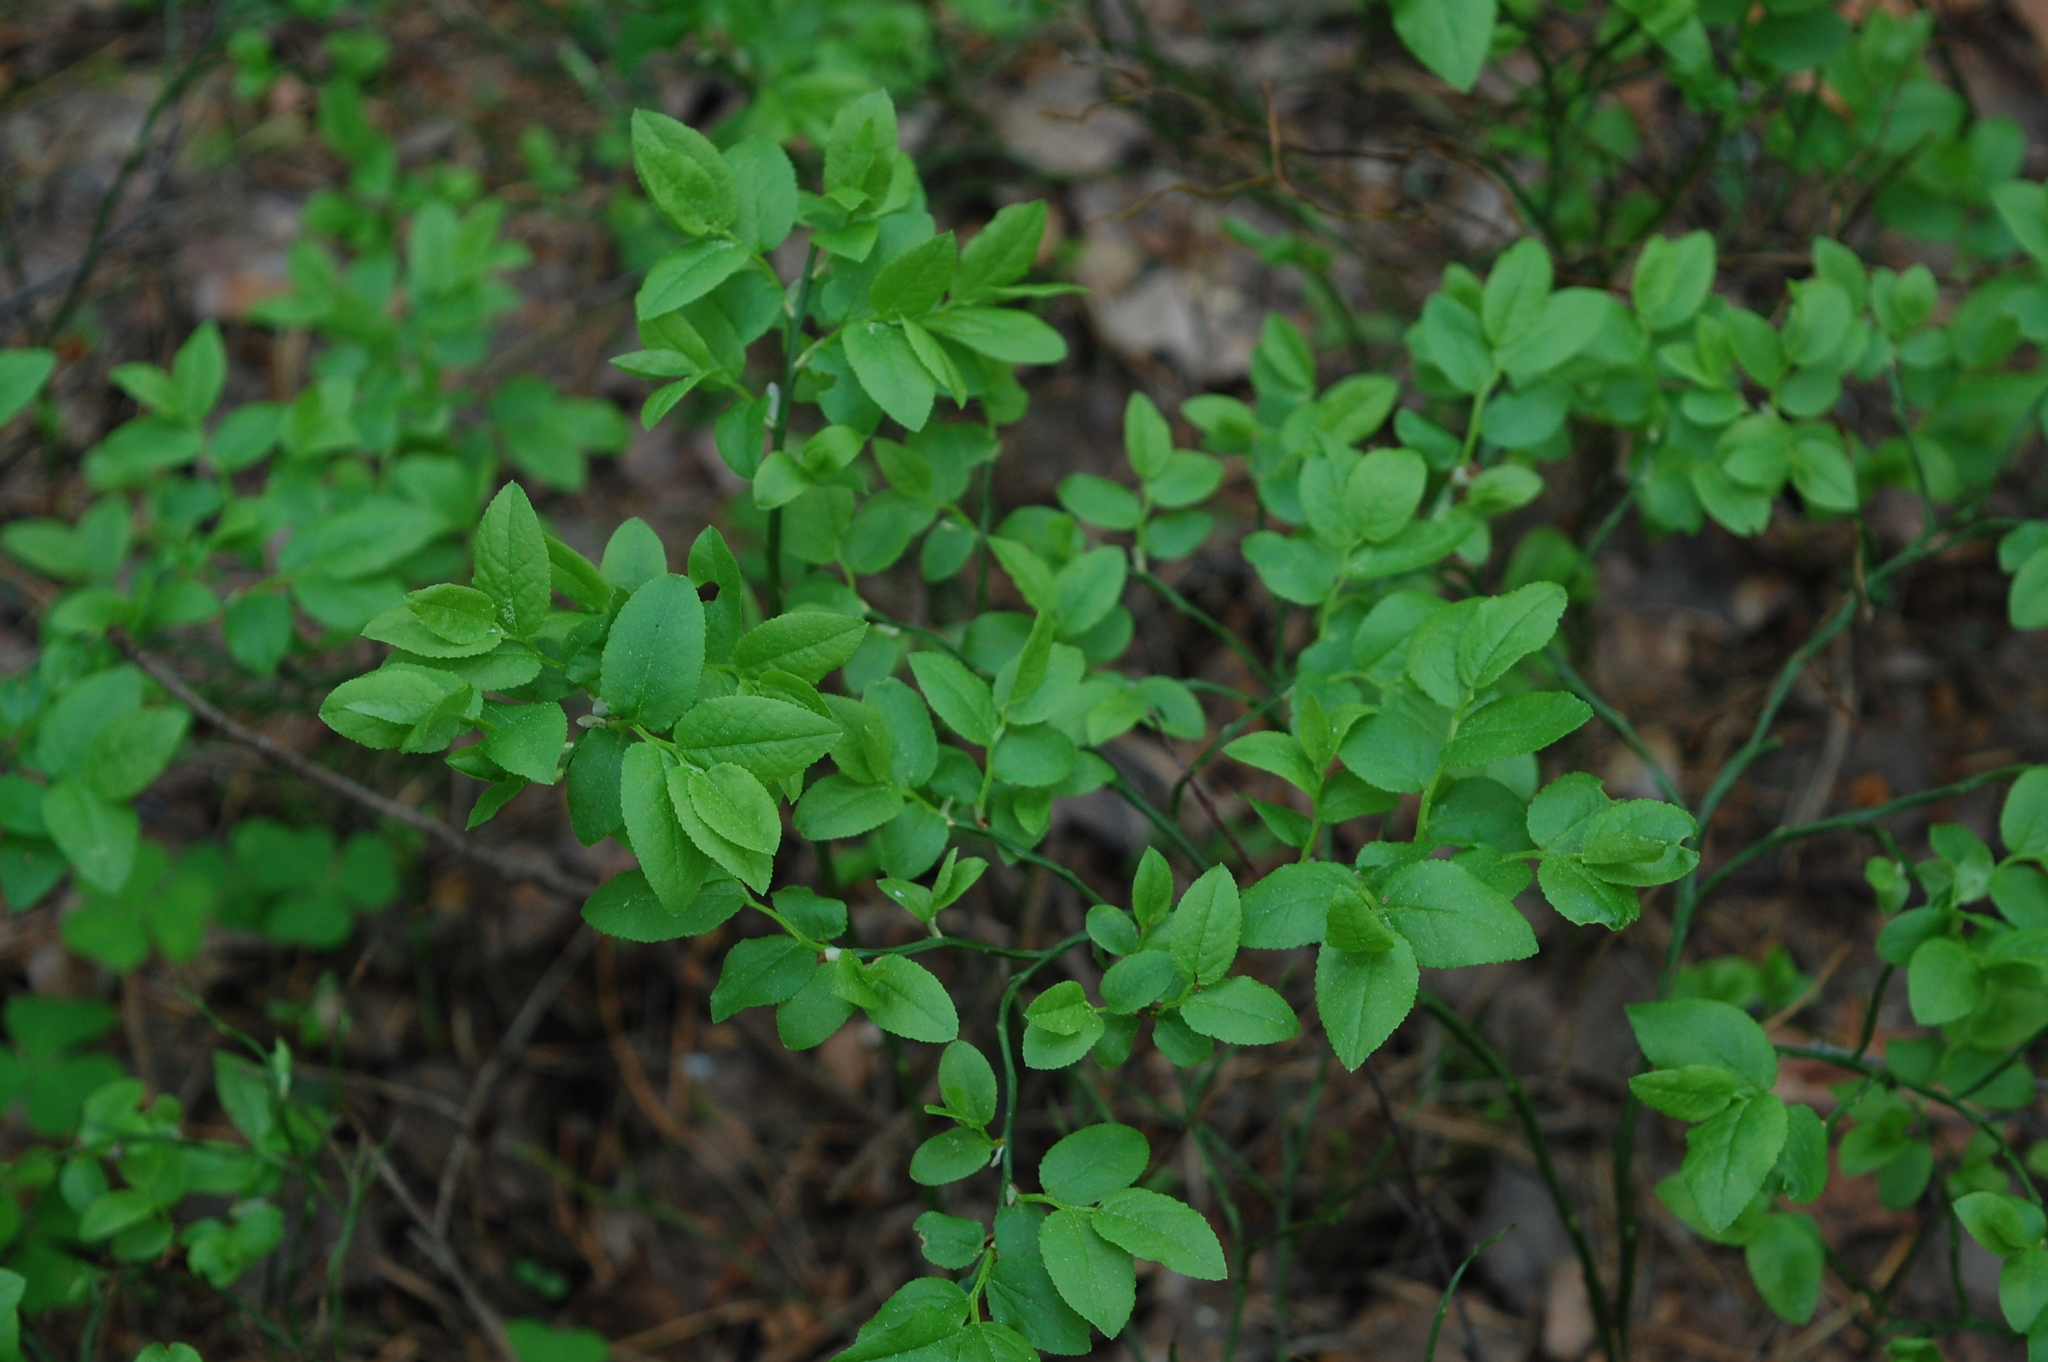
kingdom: Plantae
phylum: Tracheophyta
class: Magnoliopsida
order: Ericales
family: Ericaceae
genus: Vaccinium
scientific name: Vaccinium myrtillus
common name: Bilberry
